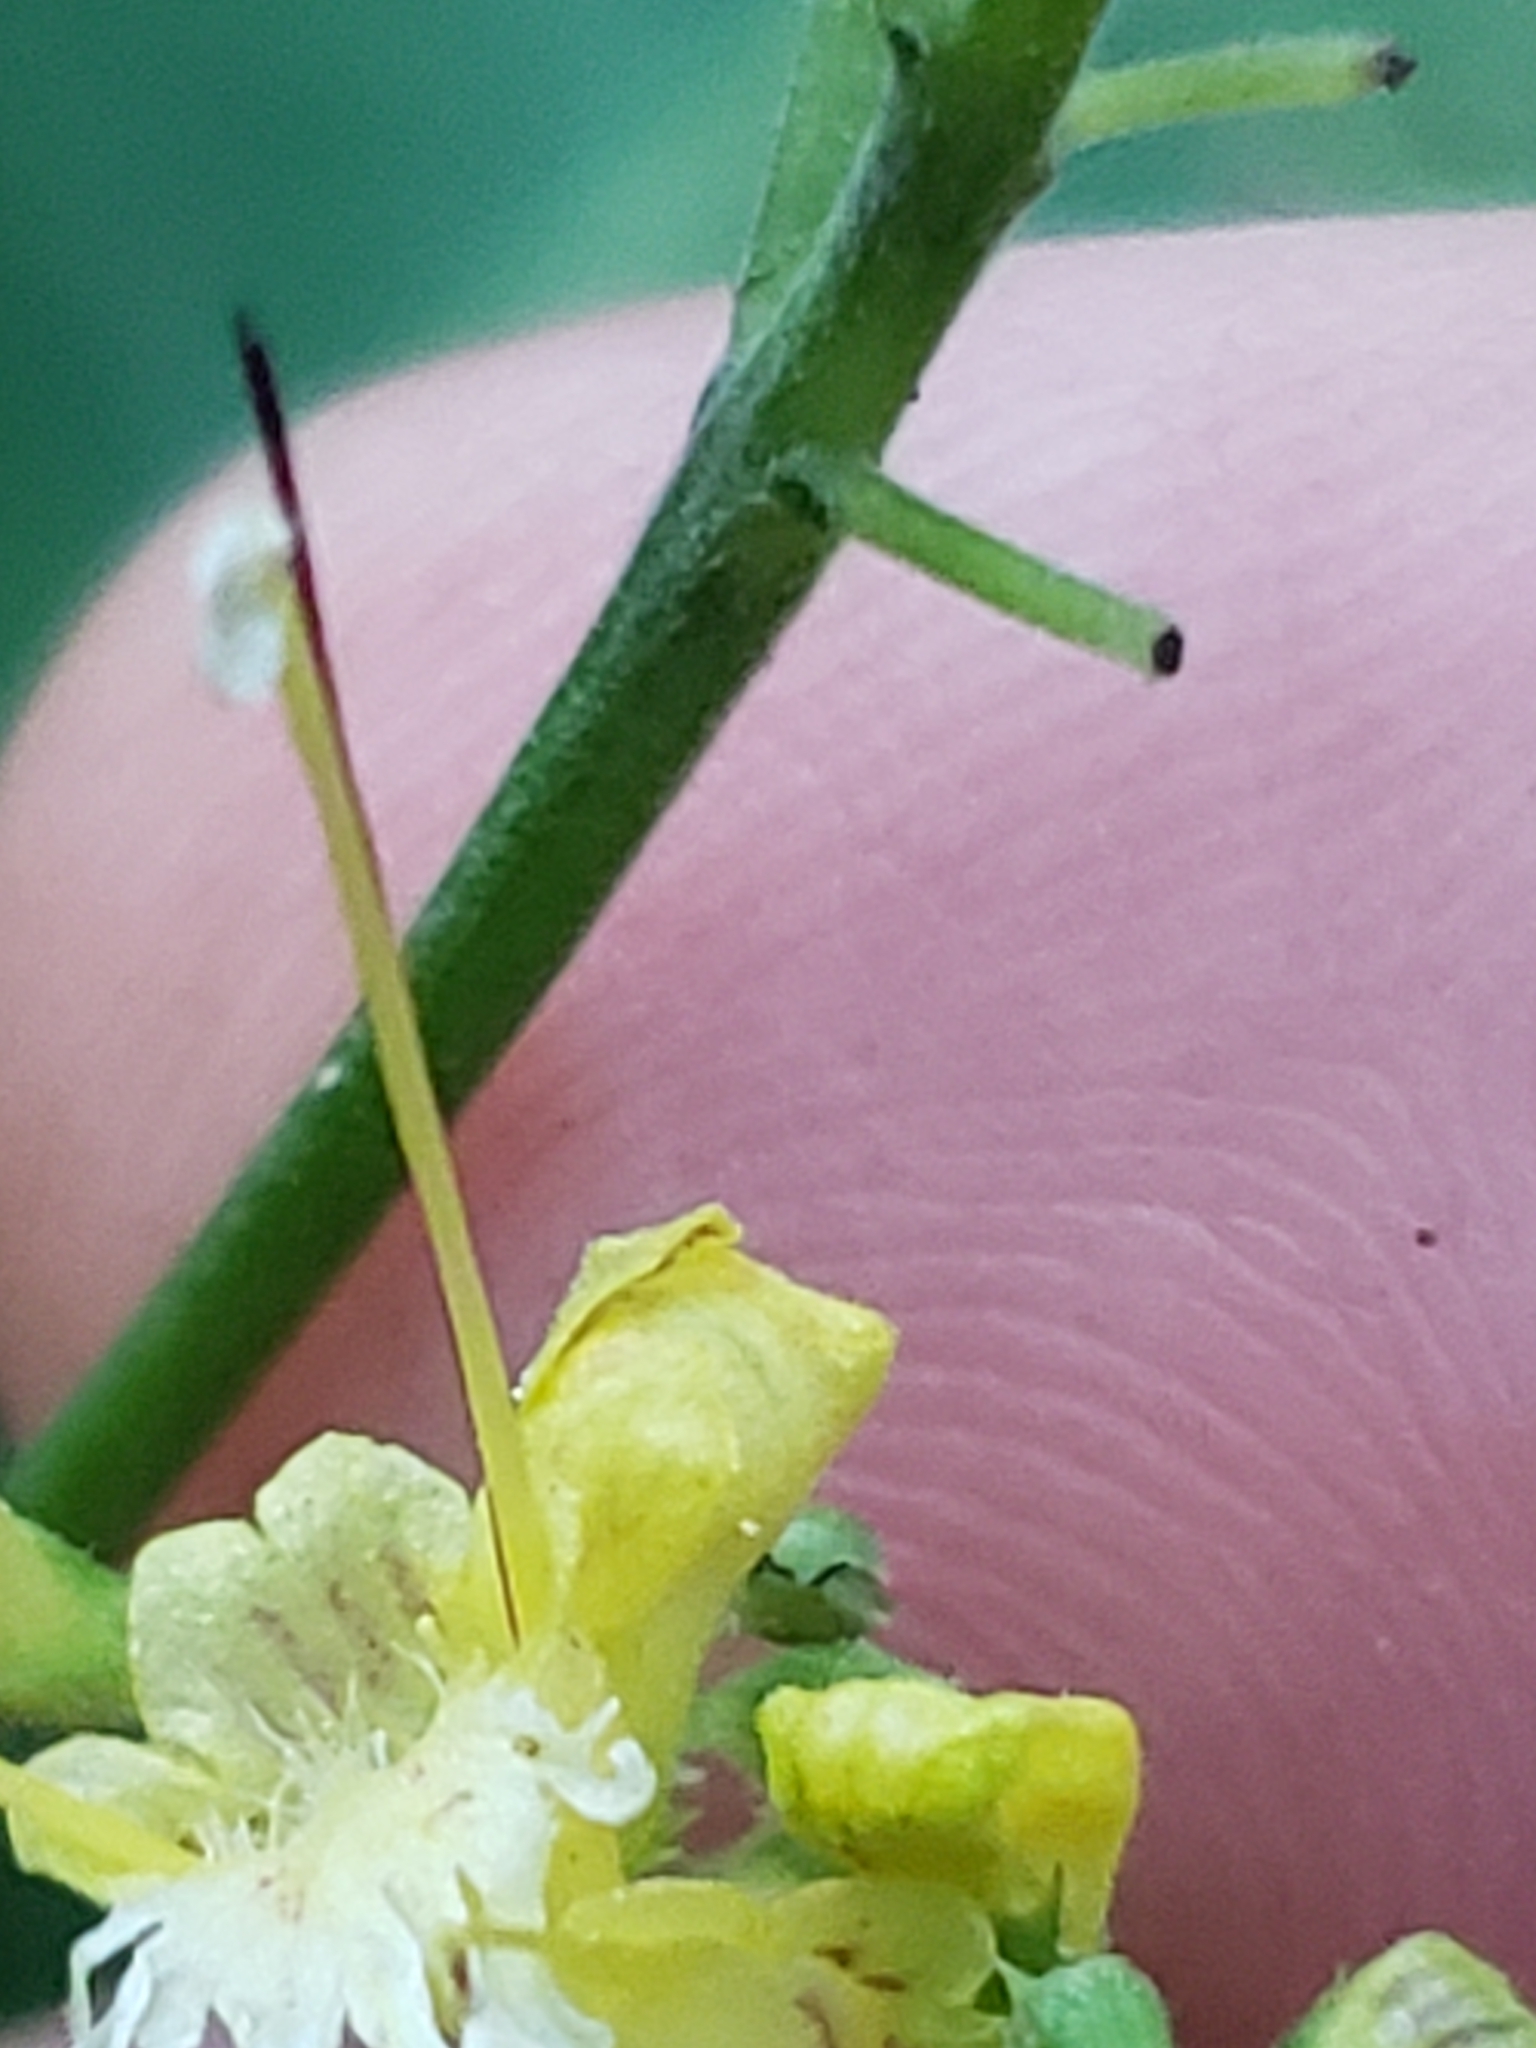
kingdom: Plantae
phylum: Tracheophyta
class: Magnoliopsida
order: Lamiales
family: Lamiaceae
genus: Collinsonia
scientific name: Collinsonia canadensis
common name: Northern horsebalm
